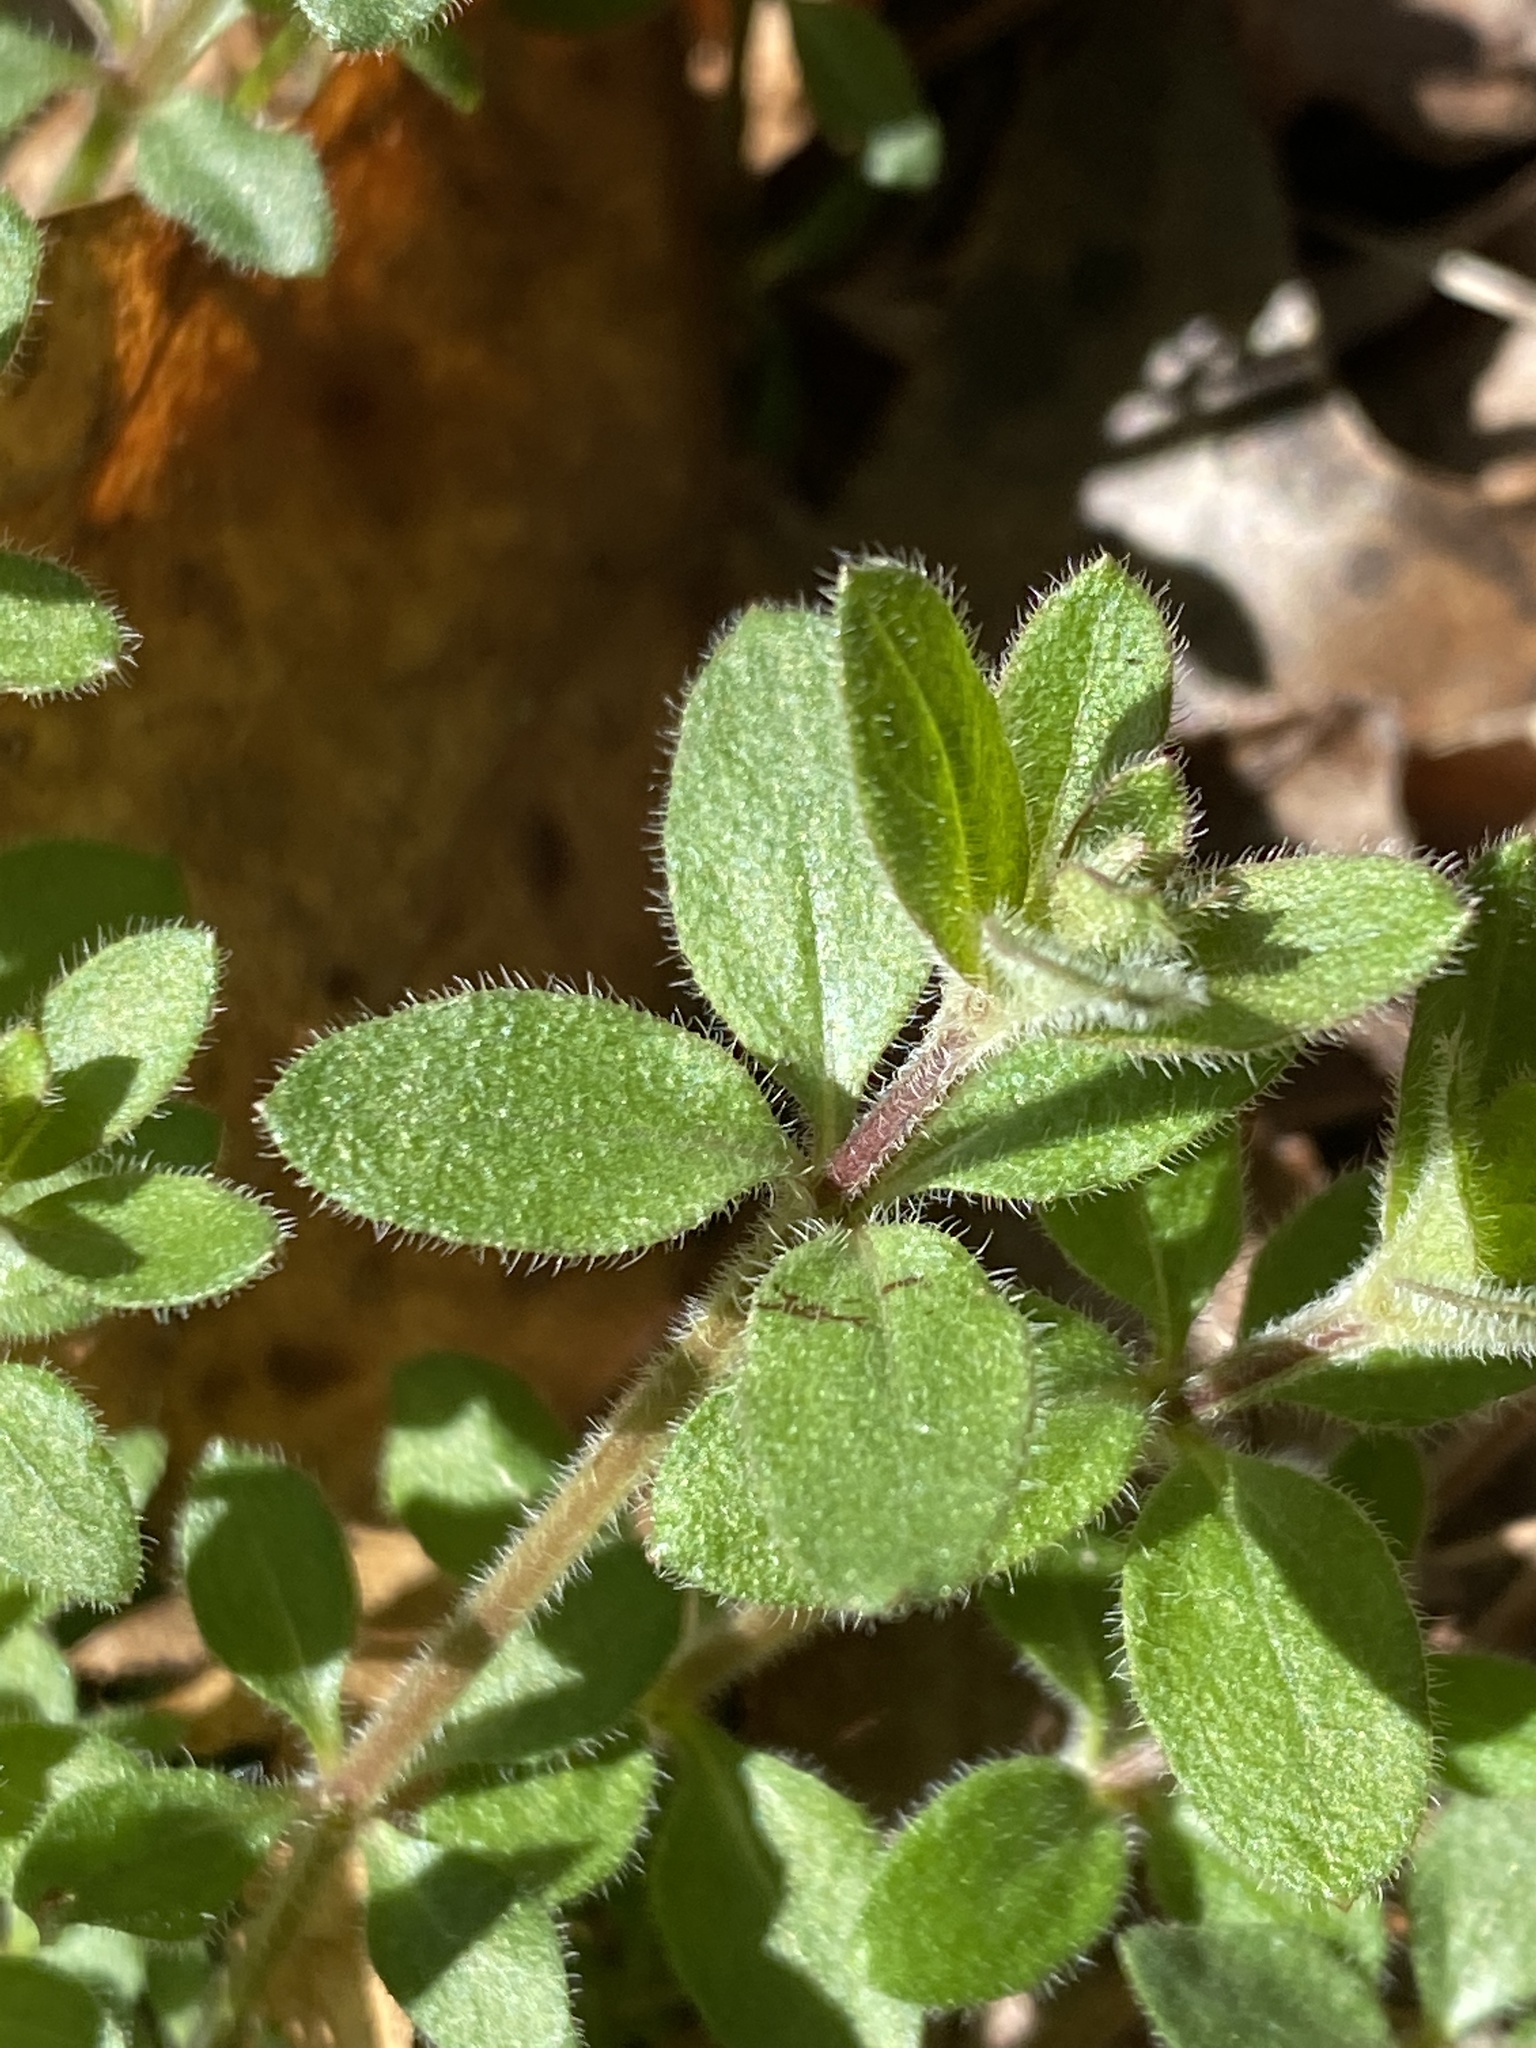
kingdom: Plantae
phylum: Tracheophyta
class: Magnoliopsida
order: Gentianales
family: Rubiaceae
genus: Galium
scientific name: Galium pilosum
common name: Hairy bedstraw
